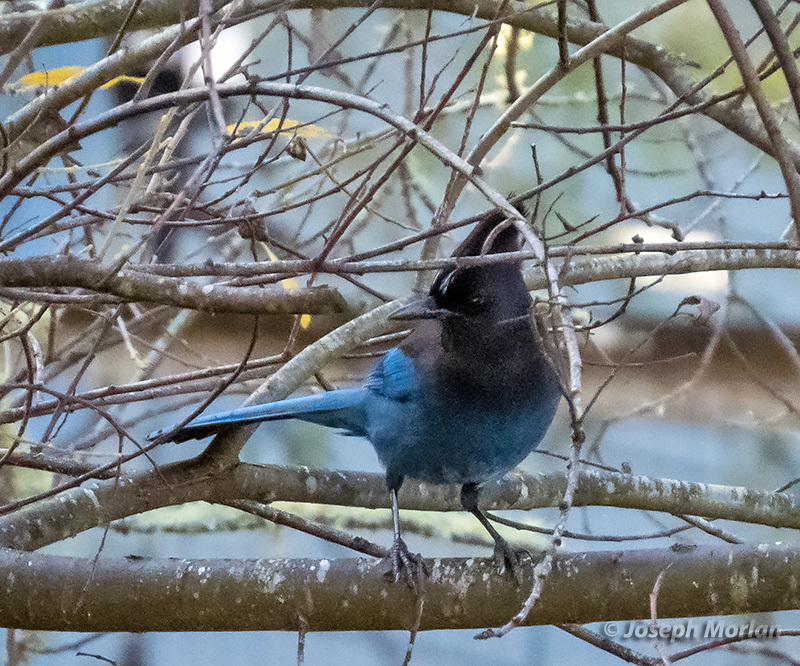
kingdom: Animalia
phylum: Chordata
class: Aves
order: Passeriformes
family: Corvidae
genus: Cyanocitta
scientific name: Cyanocitta stelleri
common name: Steller's jay
